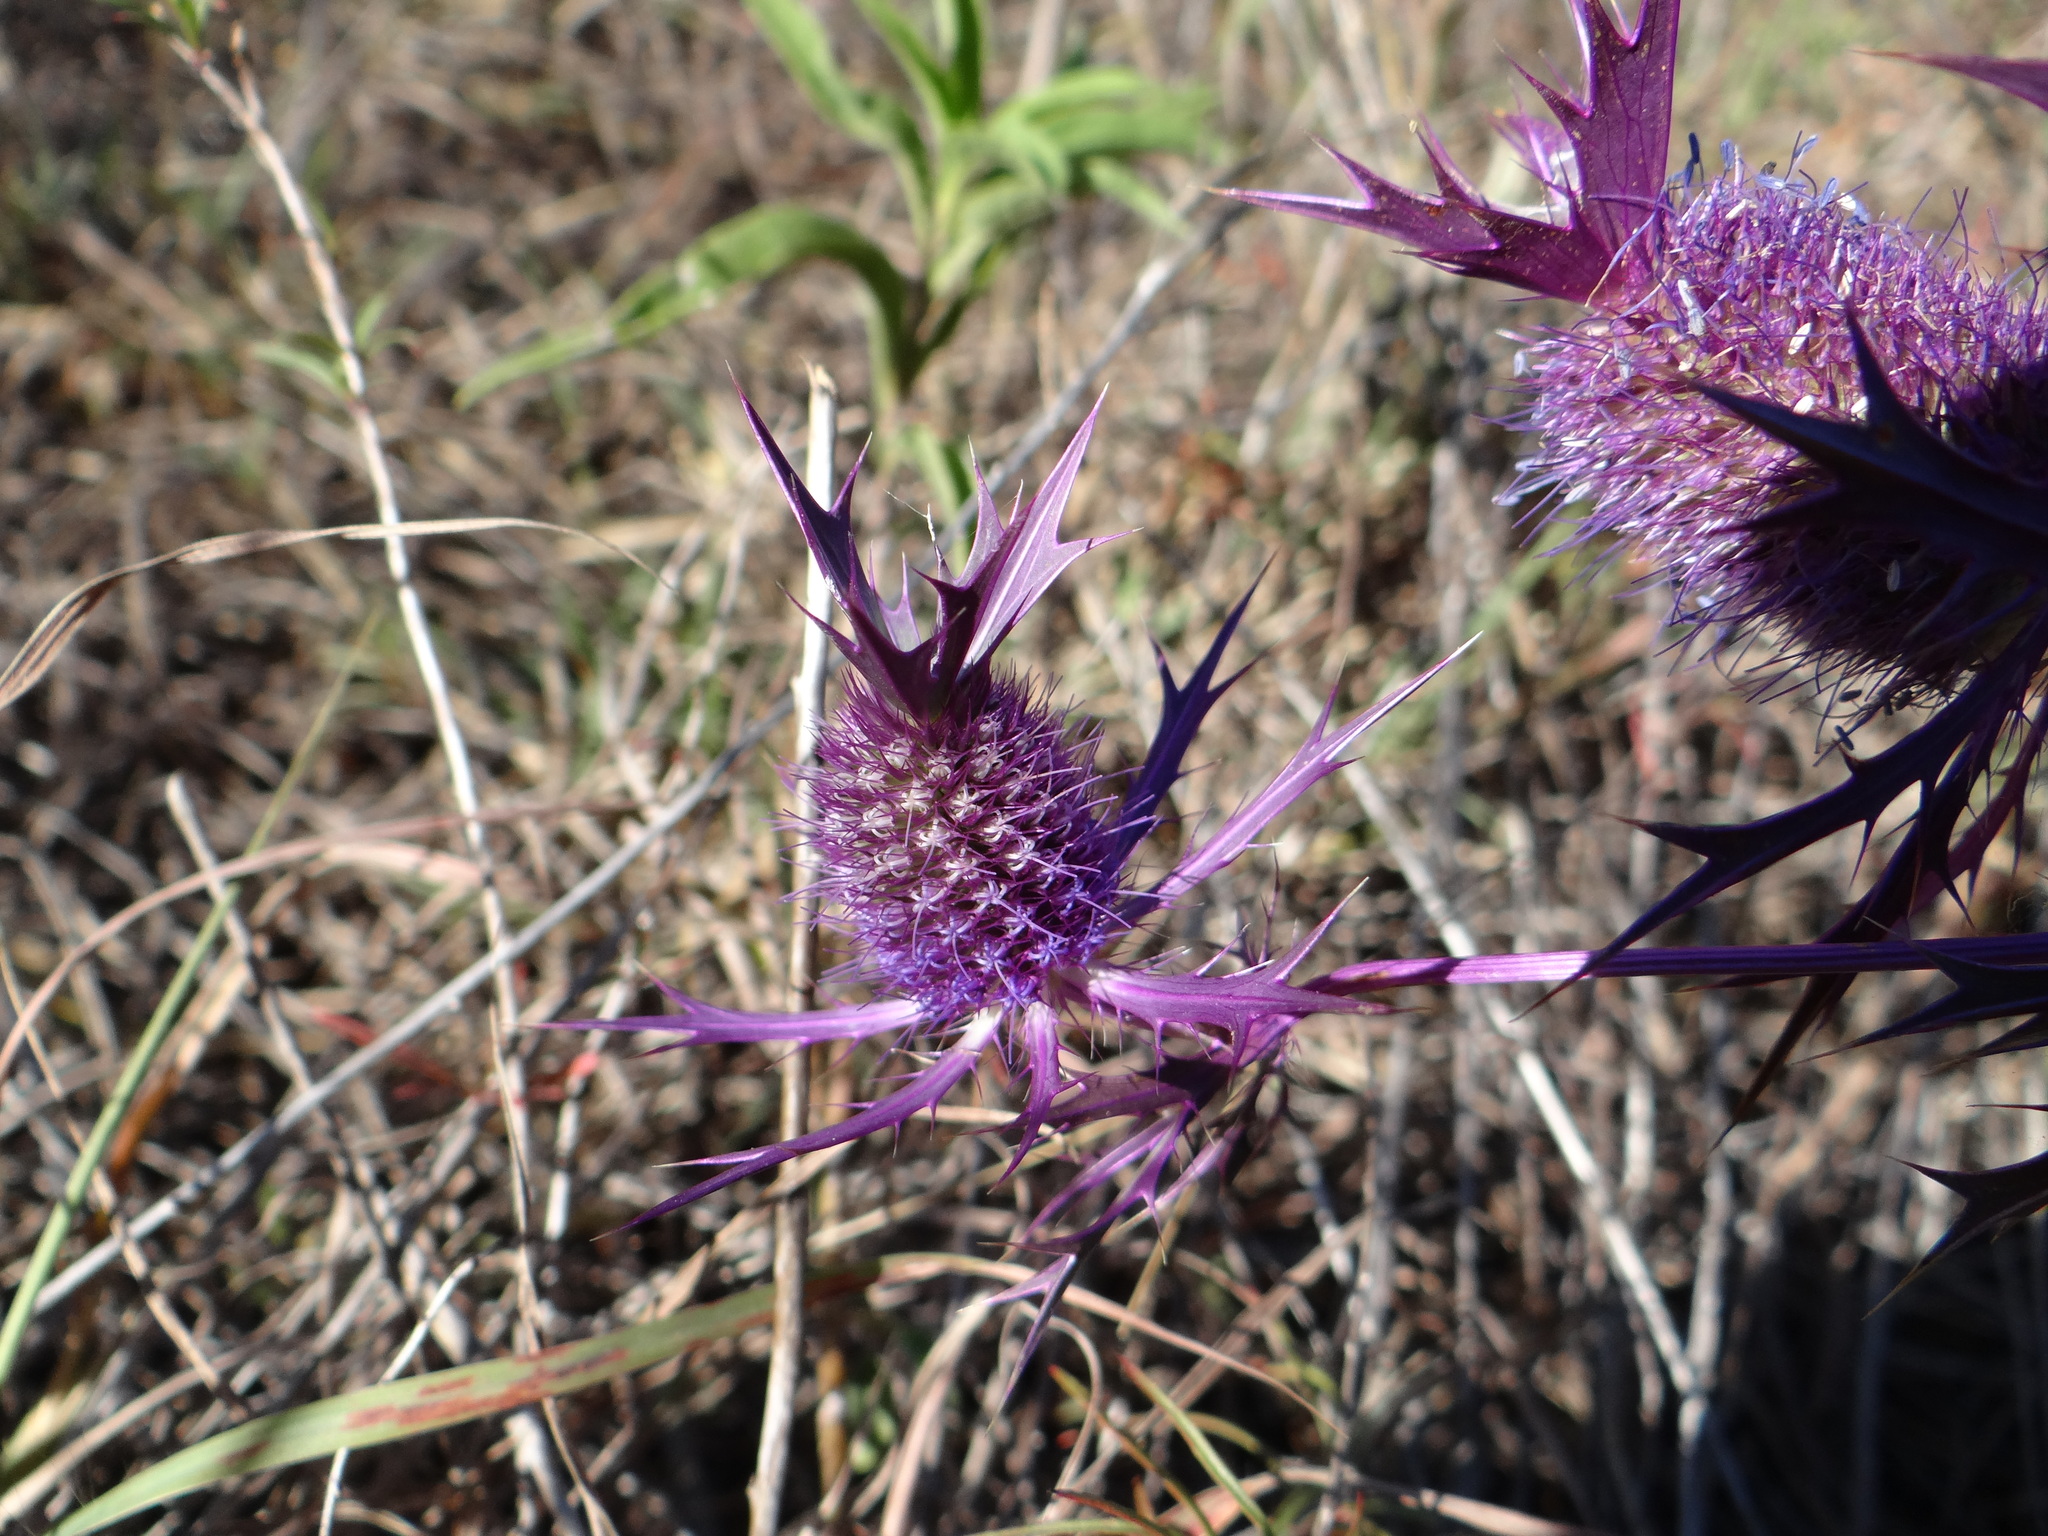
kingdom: Plantae
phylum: Tracheophyta
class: Magnoliopsida
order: Apiales
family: Apiaceae
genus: Eryngium
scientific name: Eryngium leavenworthii
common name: Leavenworth's eryngo
